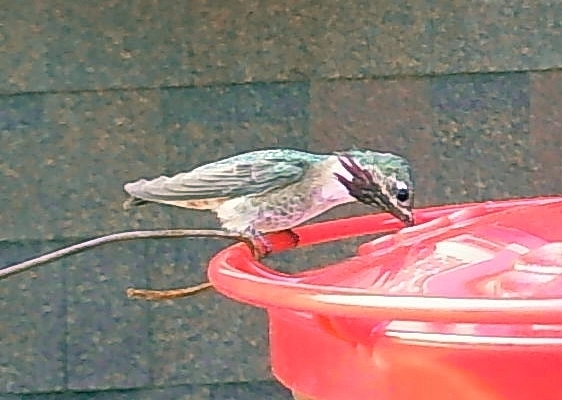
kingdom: Animalia
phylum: Chordata
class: Aves
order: Apodiformes
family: Trochilidae
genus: Selasphorus
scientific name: Selasphorus calliope
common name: Calliope hummingbird
